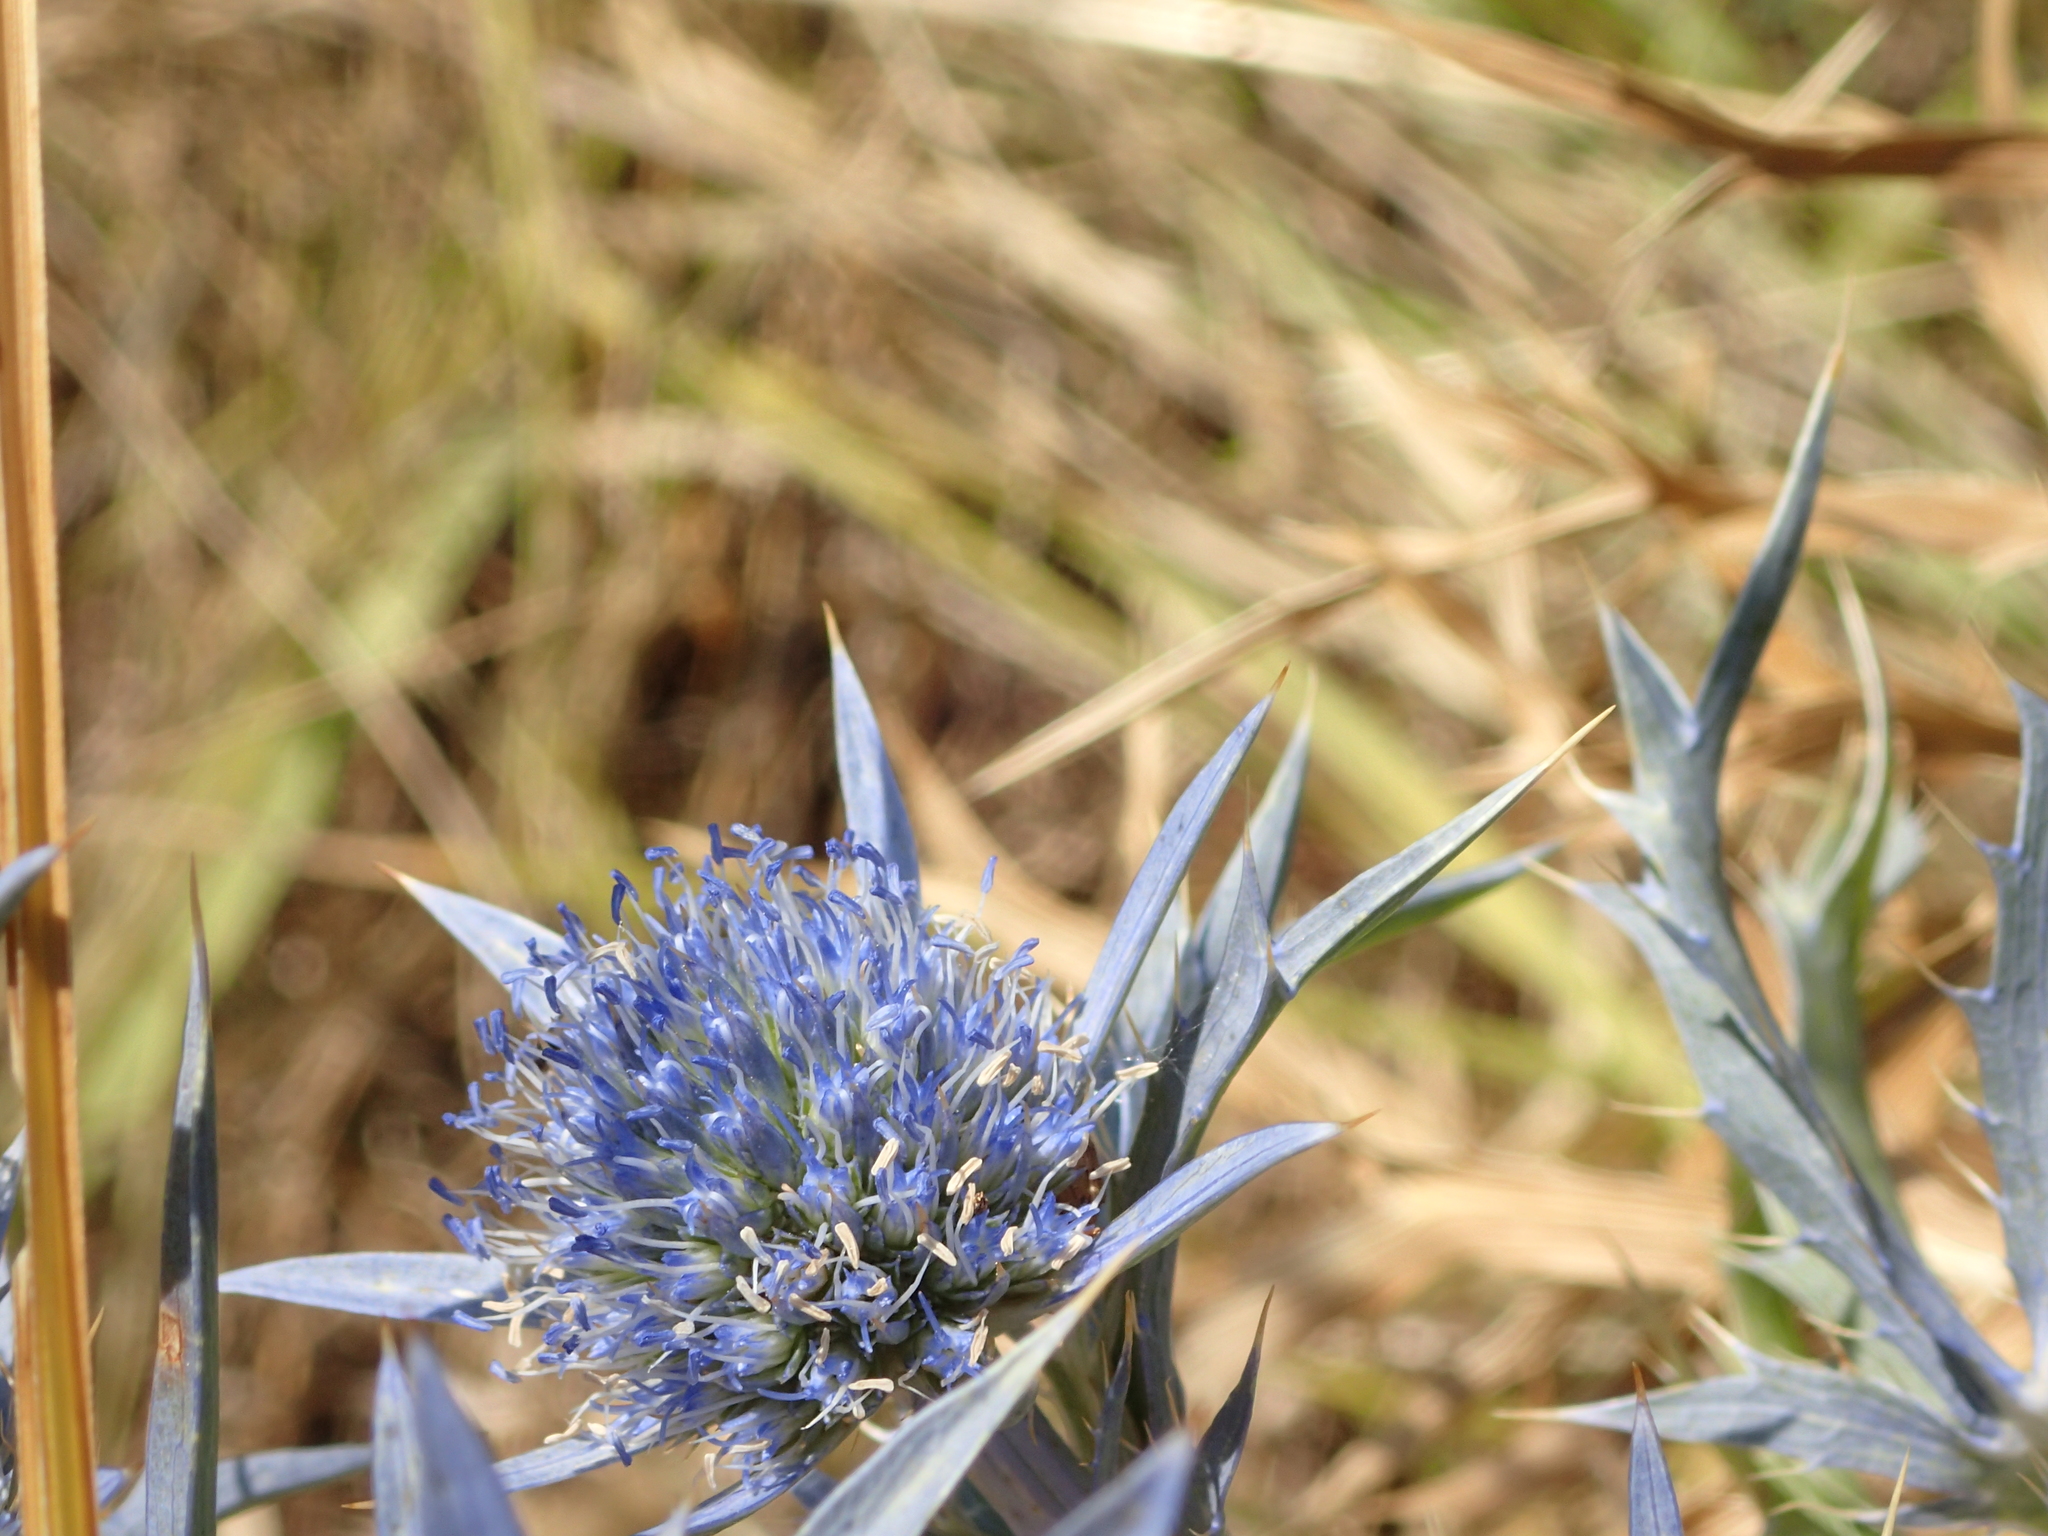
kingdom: Plantae
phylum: Tracheophyta
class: Magnoliopsida
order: Apiales
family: Apiaceae
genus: Eryngium
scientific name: Eryngium amethystinum
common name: Amethyst eryngo
